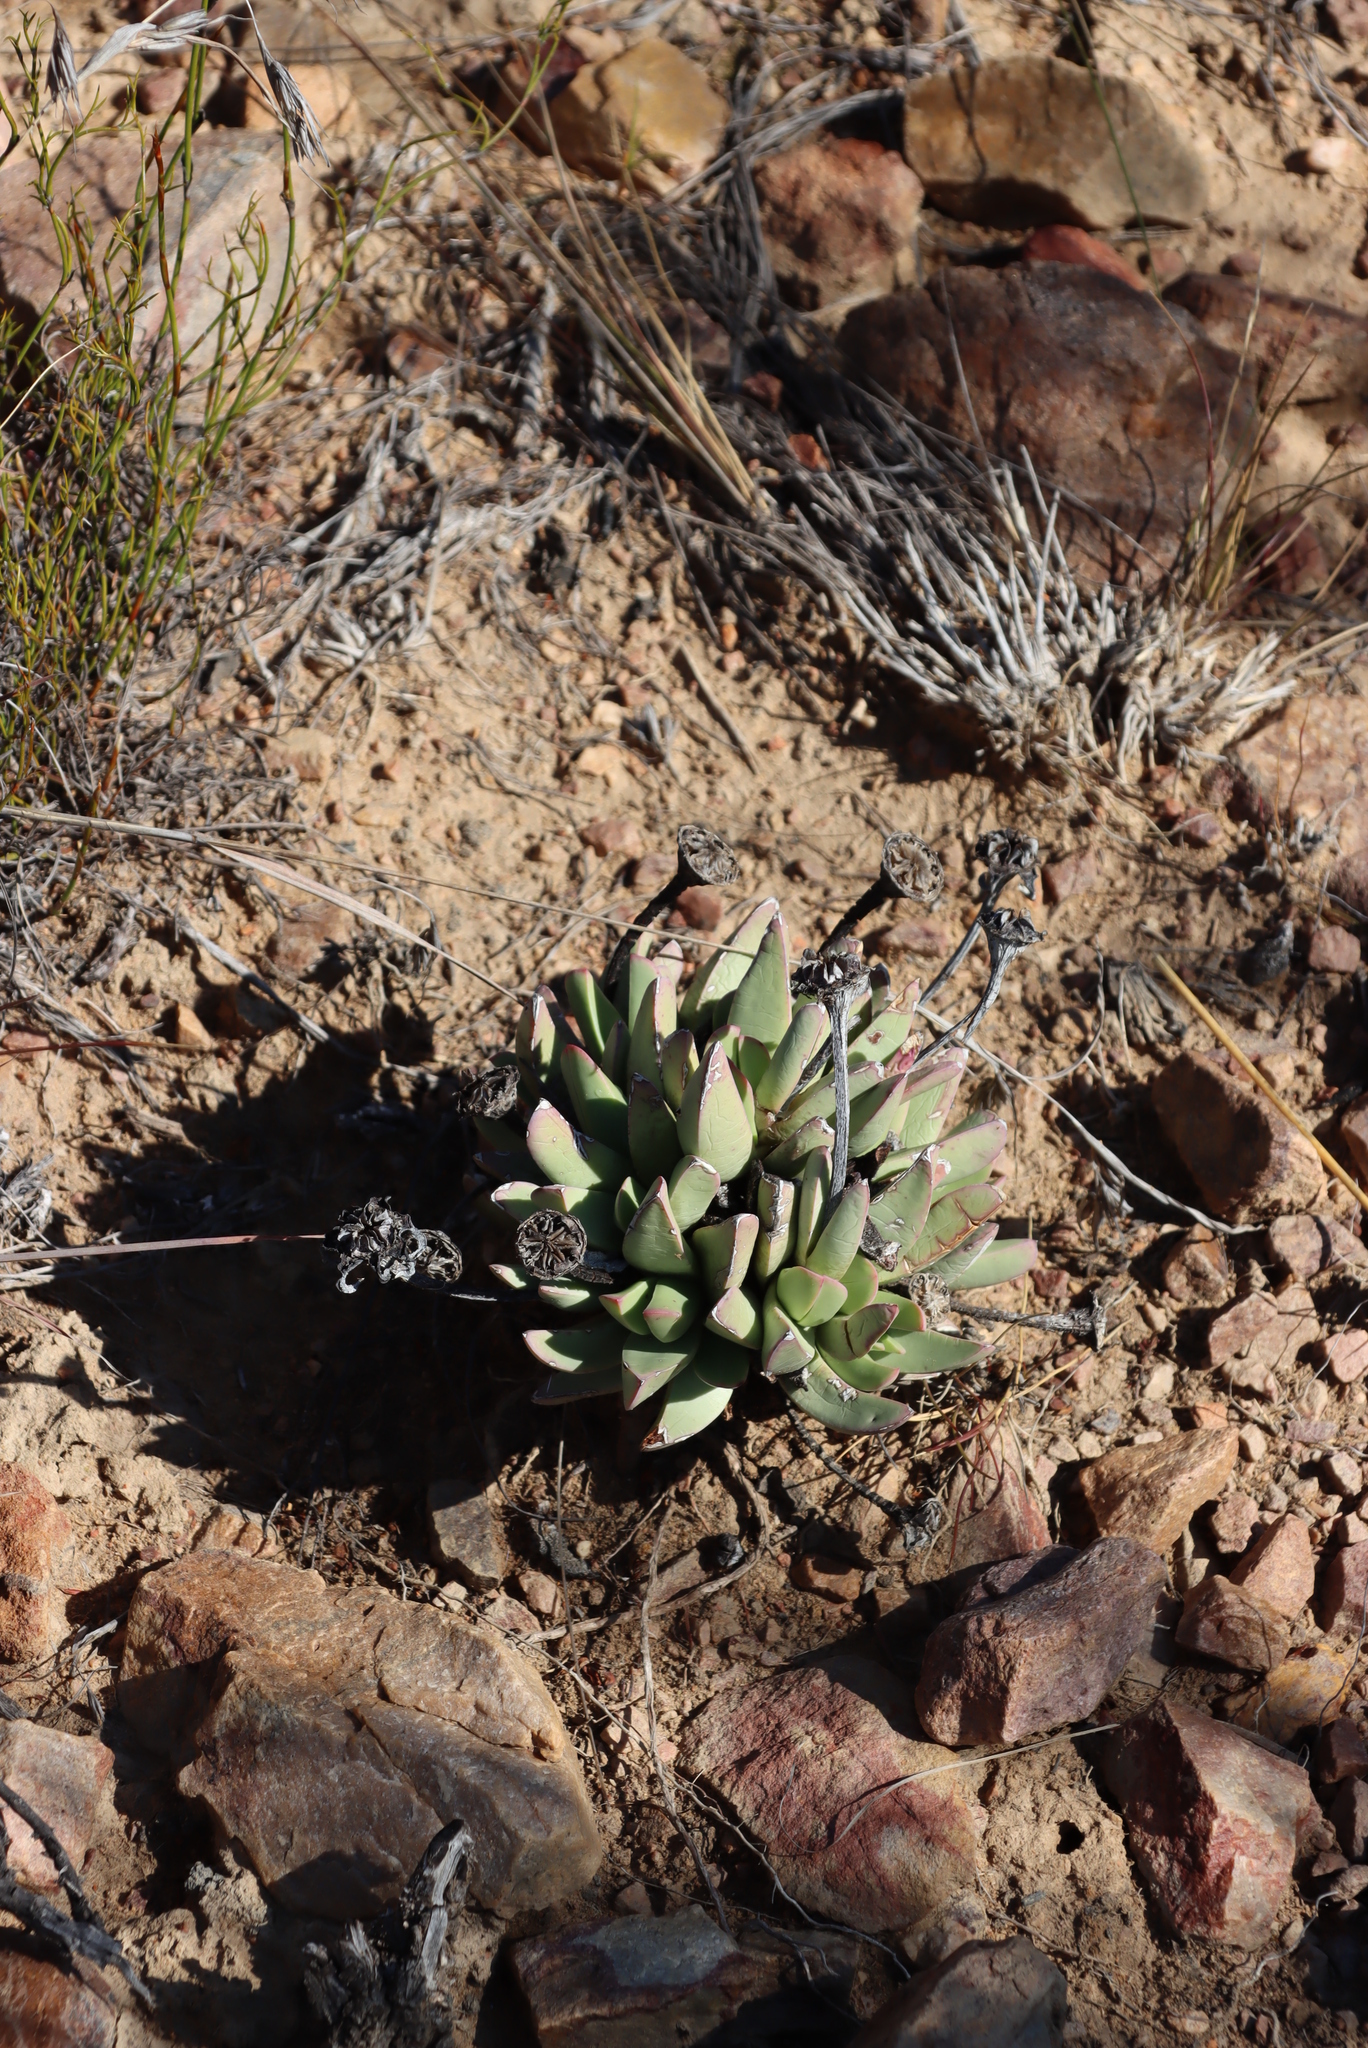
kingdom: Plantae
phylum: Tracheophyta
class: Magnoliopsida
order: Caryophyllales
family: Aizoaceae
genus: Machairophyllum
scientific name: Machairophyllum bijlii
